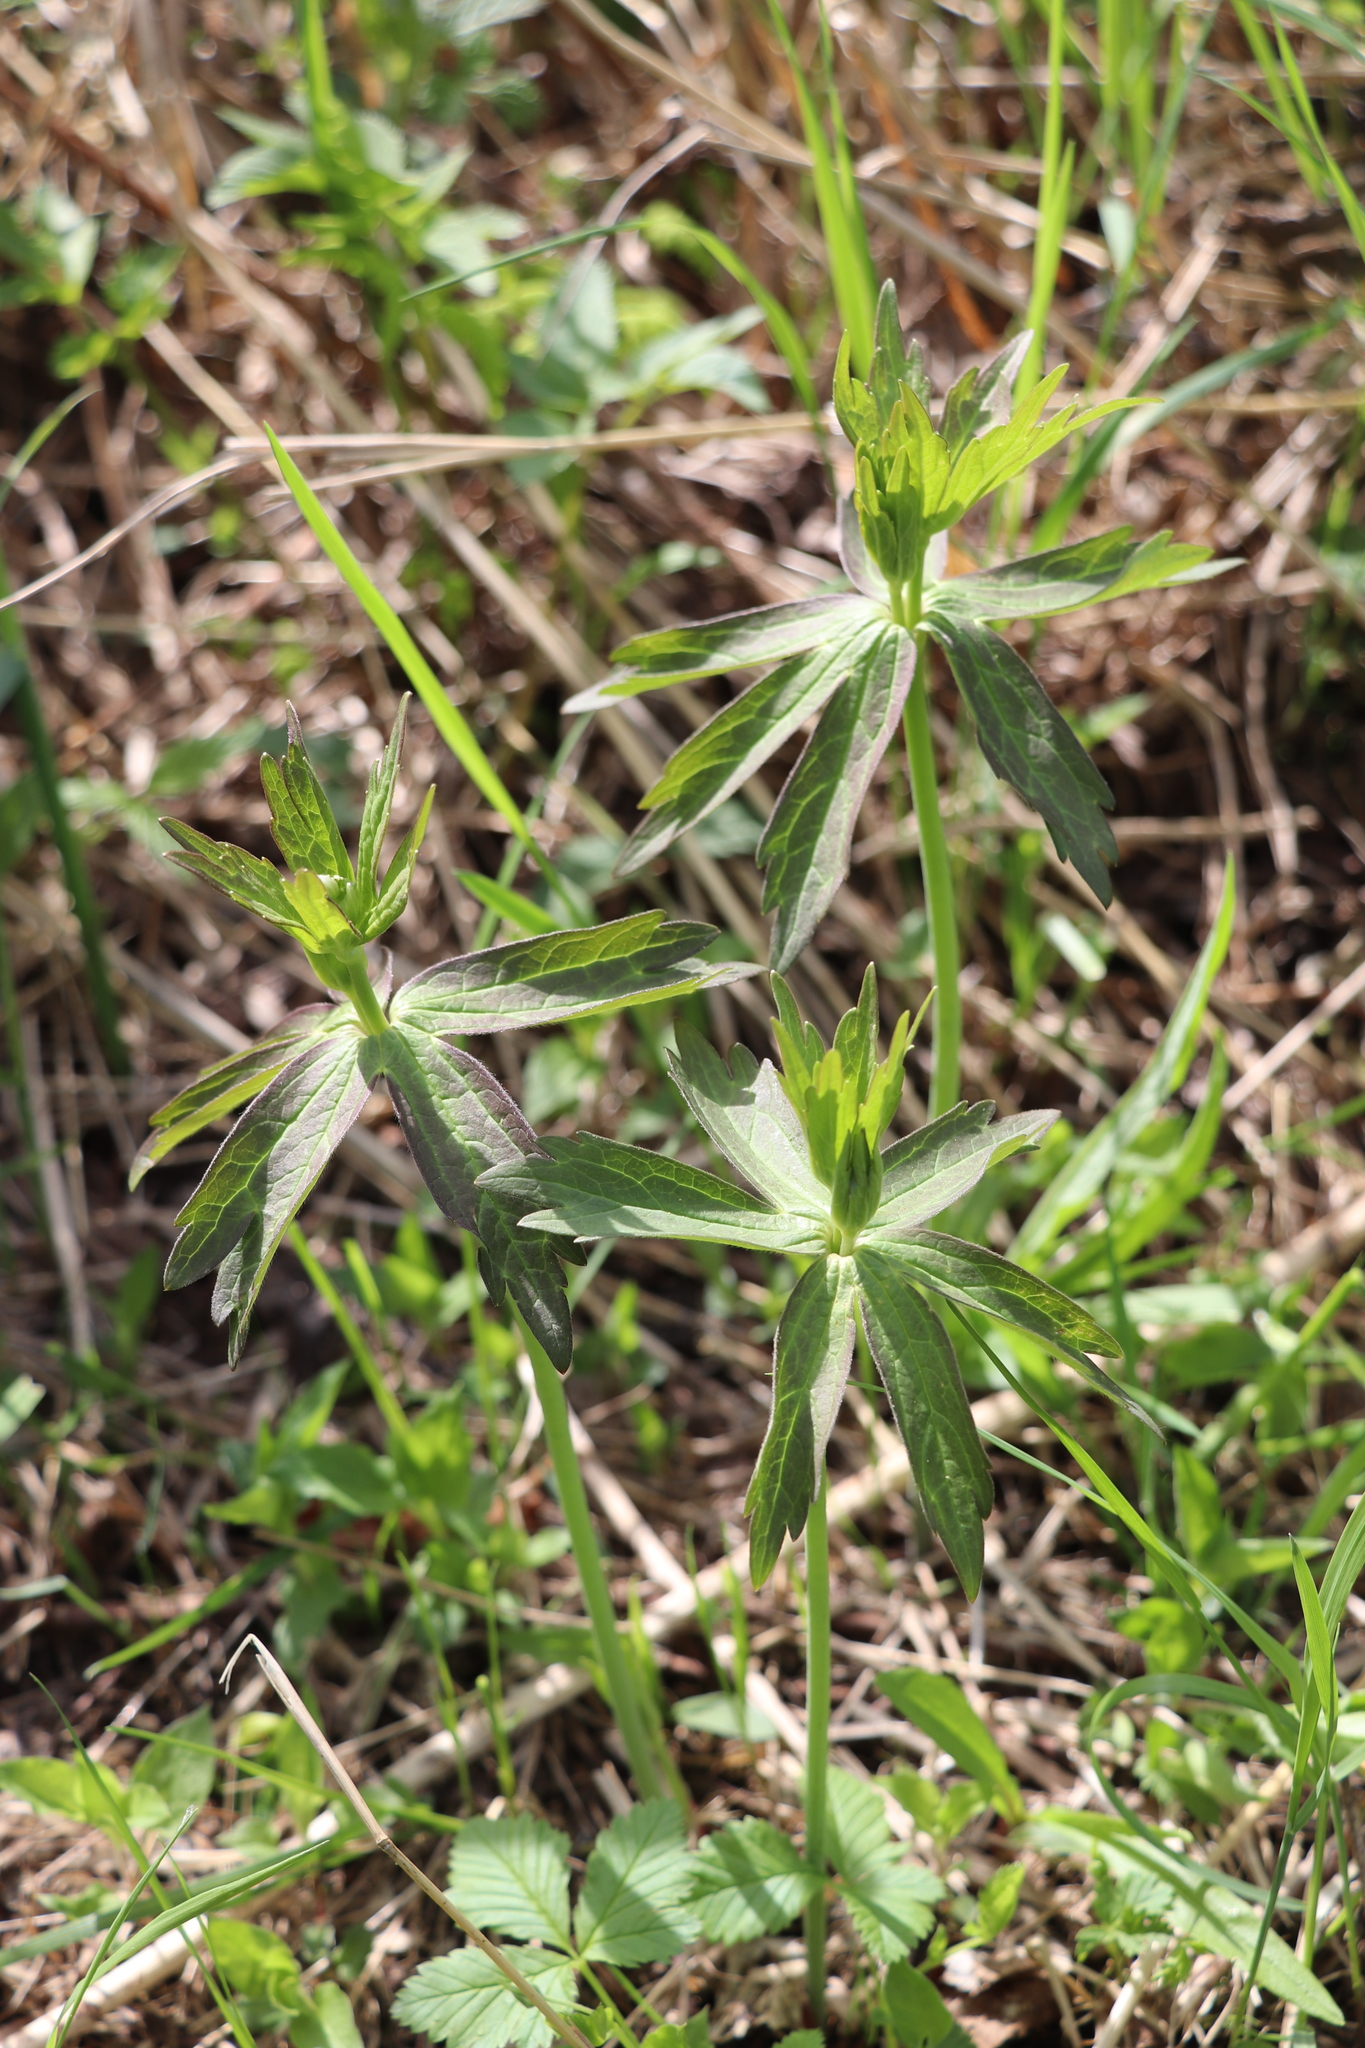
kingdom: Plantae
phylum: Tracheophyta
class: Magnoliopsida
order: Ranunculales
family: Ranunculaceae
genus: Anemonastrum
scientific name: Anemonastrum dichotomum
